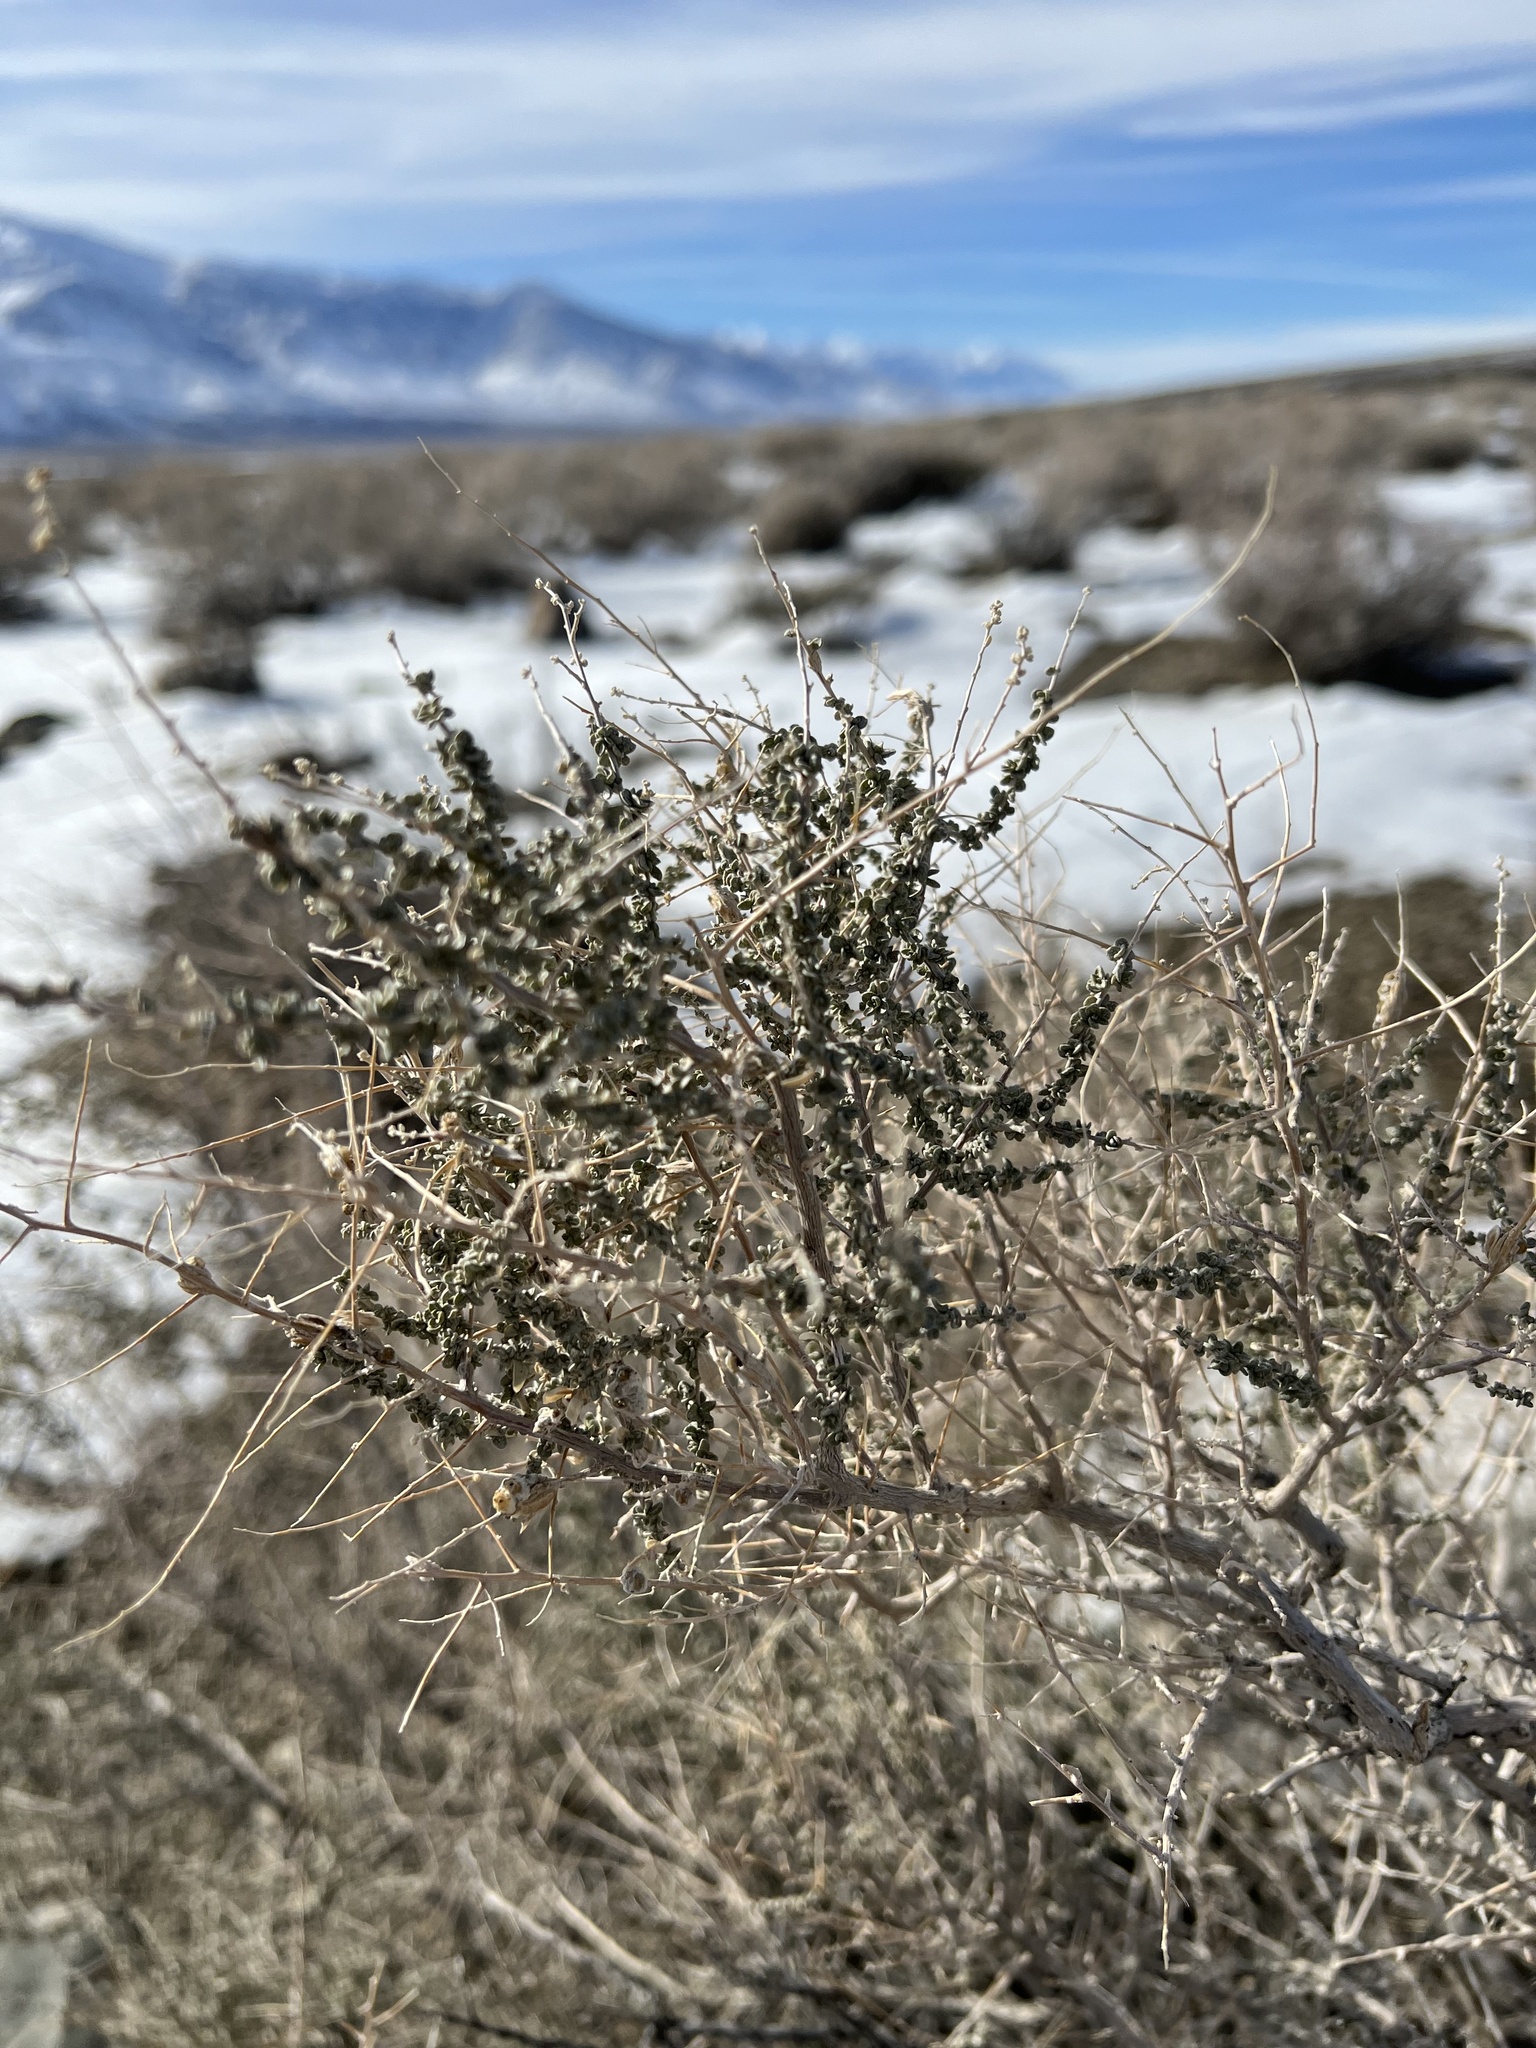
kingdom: Plantae
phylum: Tracheophyta
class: Magnoliopsida
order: Caryophyllales
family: Amaranthaceae
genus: Atriplex
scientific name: Atriplex polycarpa
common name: Desert saltbush
